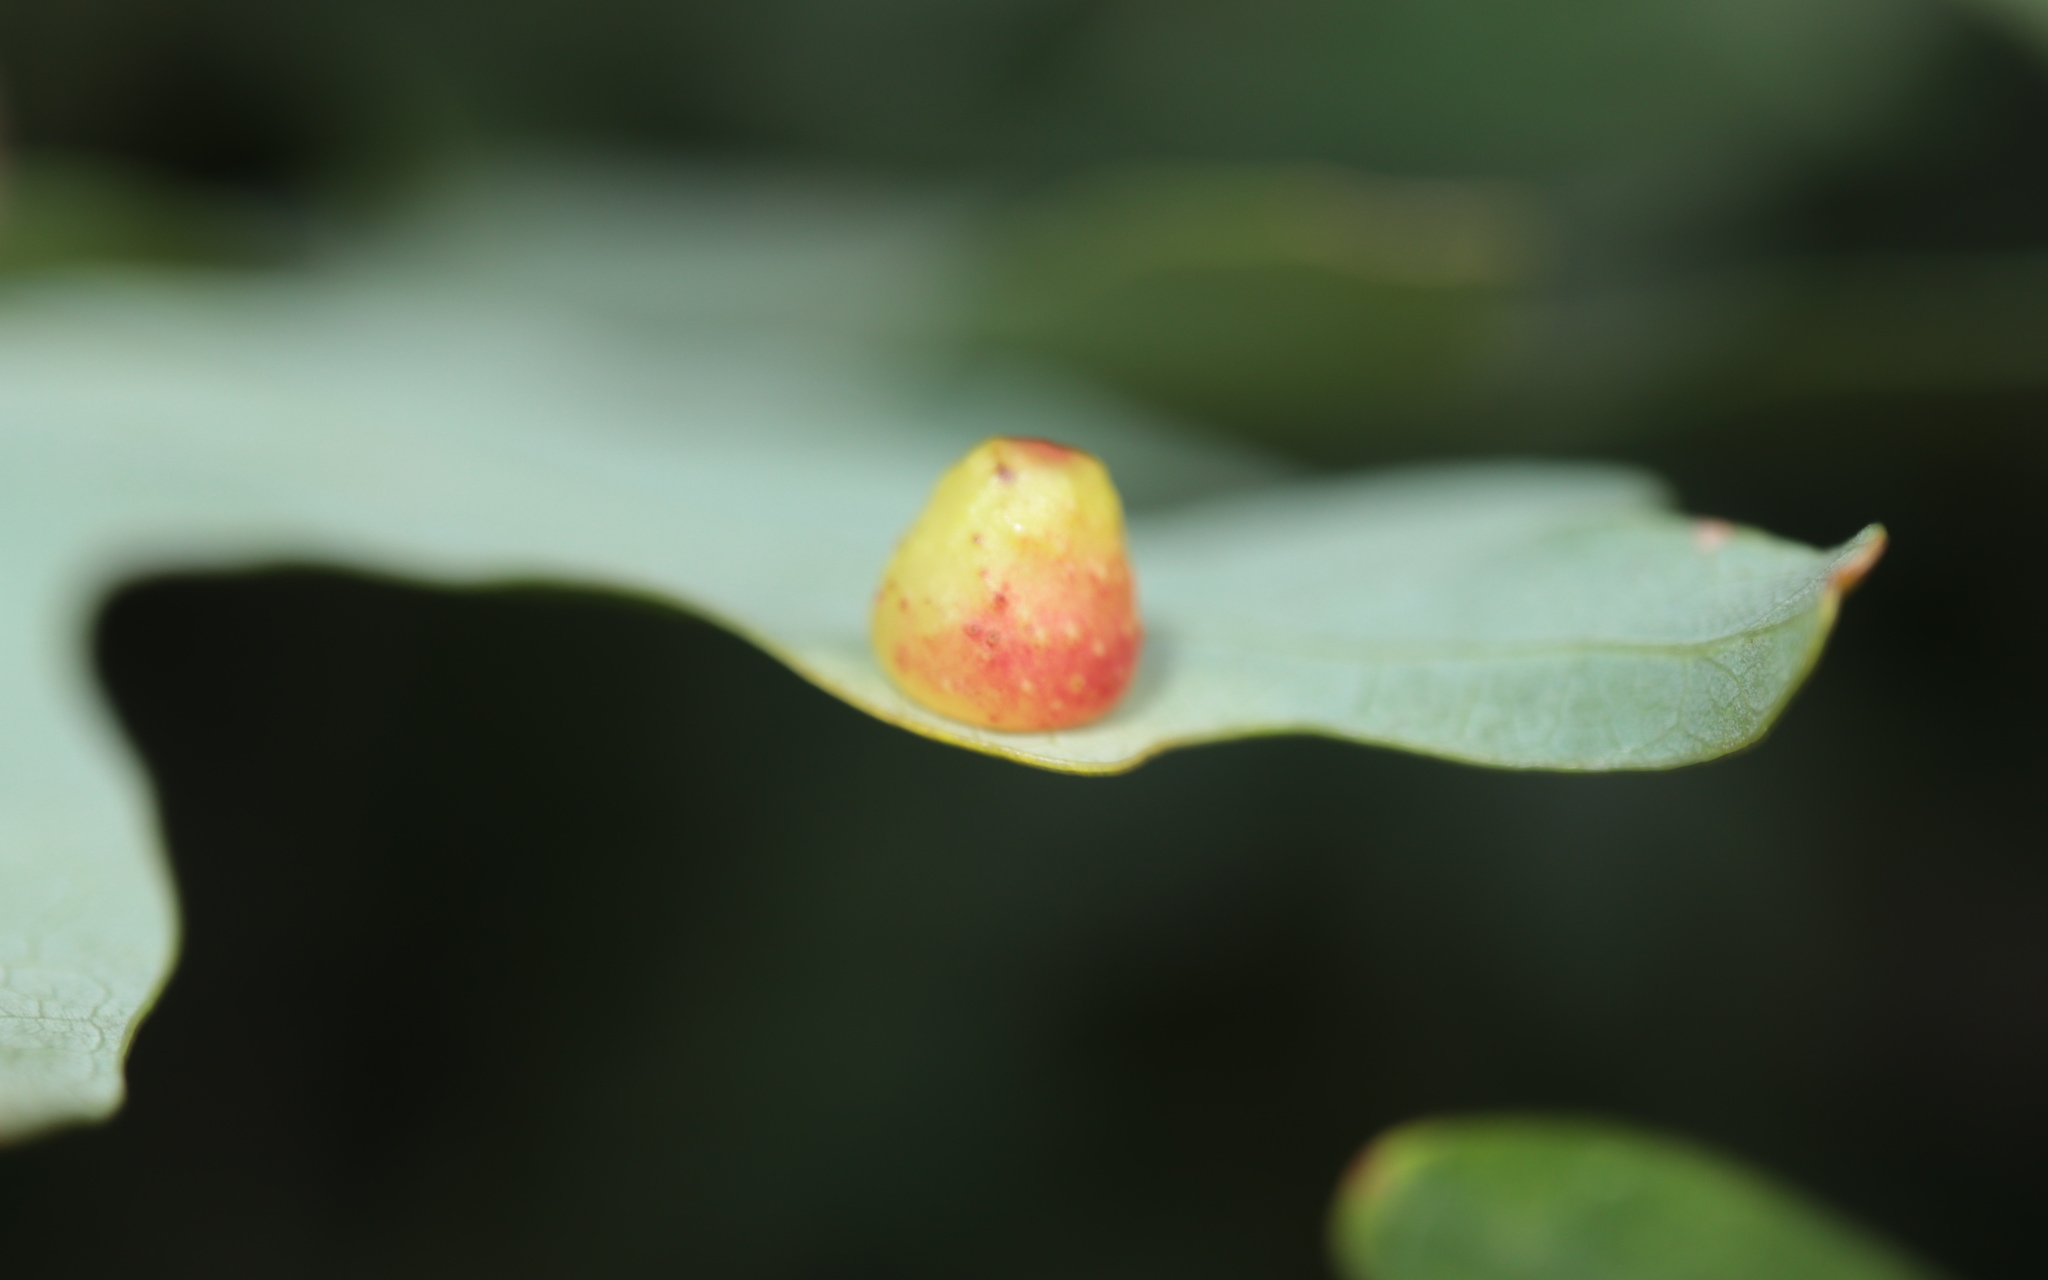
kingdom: Animalia
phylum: Arthropoda
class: Insecta
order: Hymenoptera
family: Cynipidae
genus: Andricus
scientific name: Andricus
